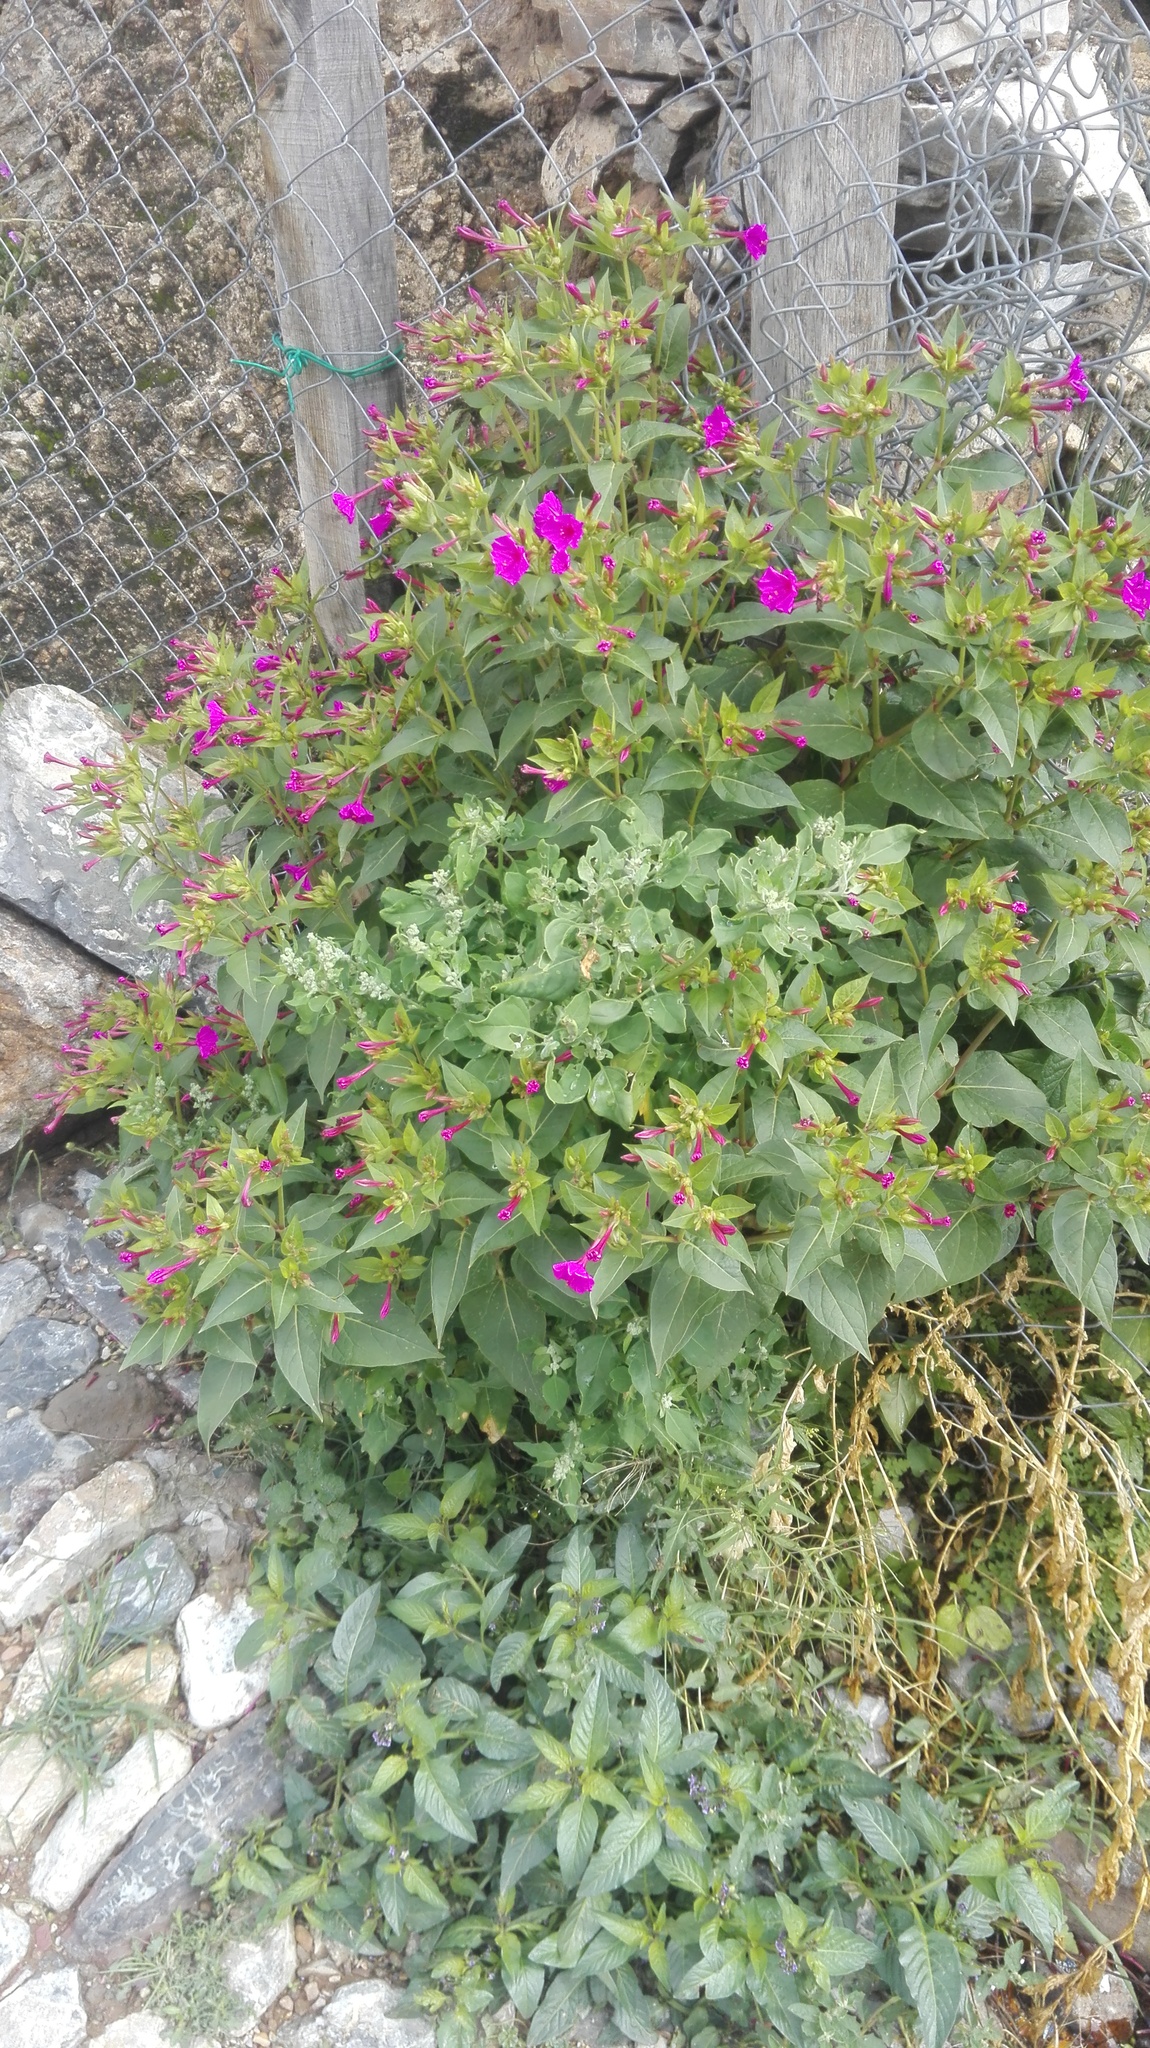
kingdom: Plantae
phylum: Tracheophyta
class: Magnoliopsida
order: Caryophyllales
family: Nyctaginaceae
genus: Mirabilis
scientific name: Mirabilis jalapa
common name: Marvel-of-peru
